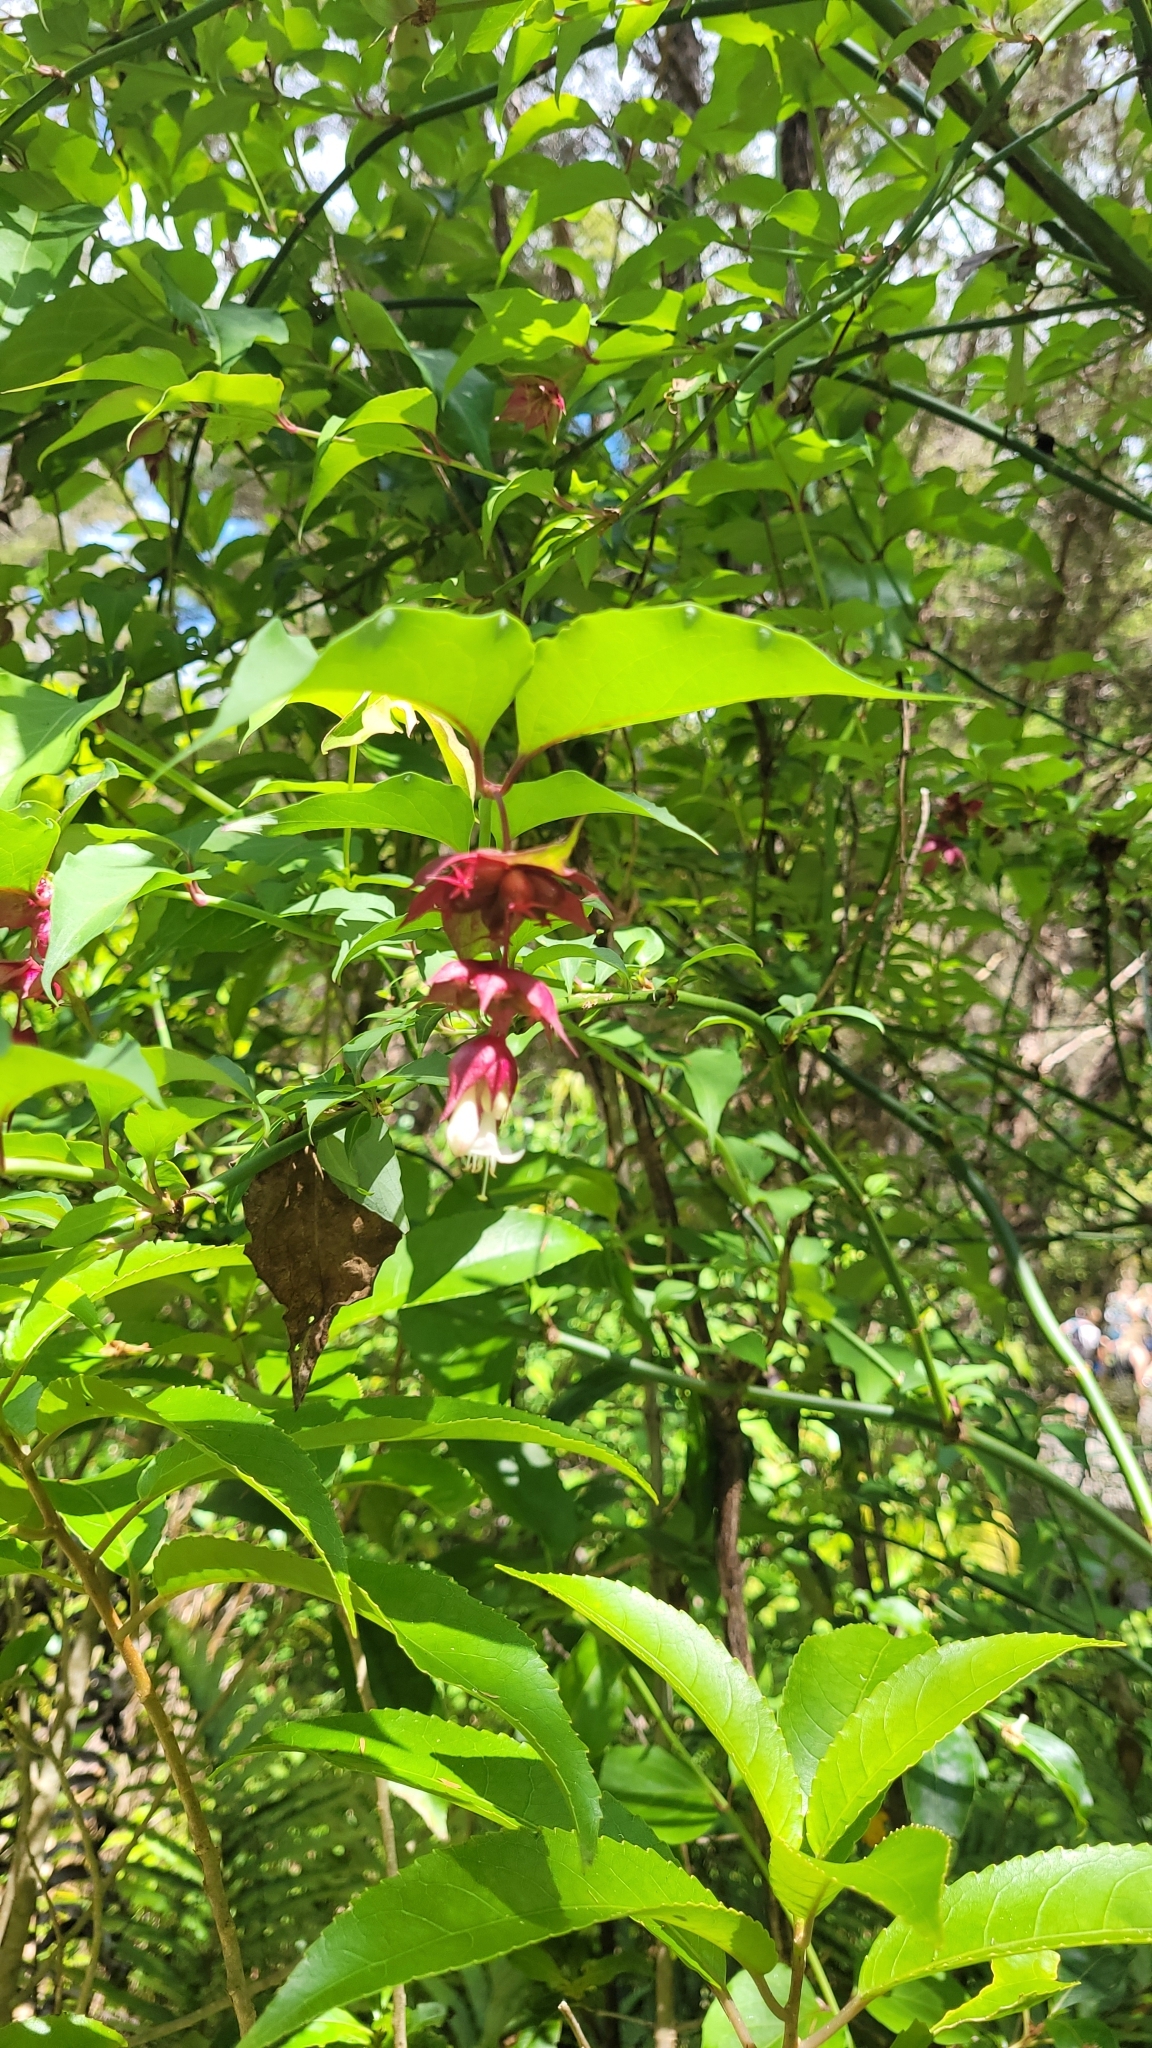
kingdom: Plantae
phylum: Tracheophyta
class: Magnoliopsida
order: Dipsacales
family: Caprifoliaceae
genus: Leycesteria
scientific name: Leycesteria formosa
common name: Himalayan honeysuckle
